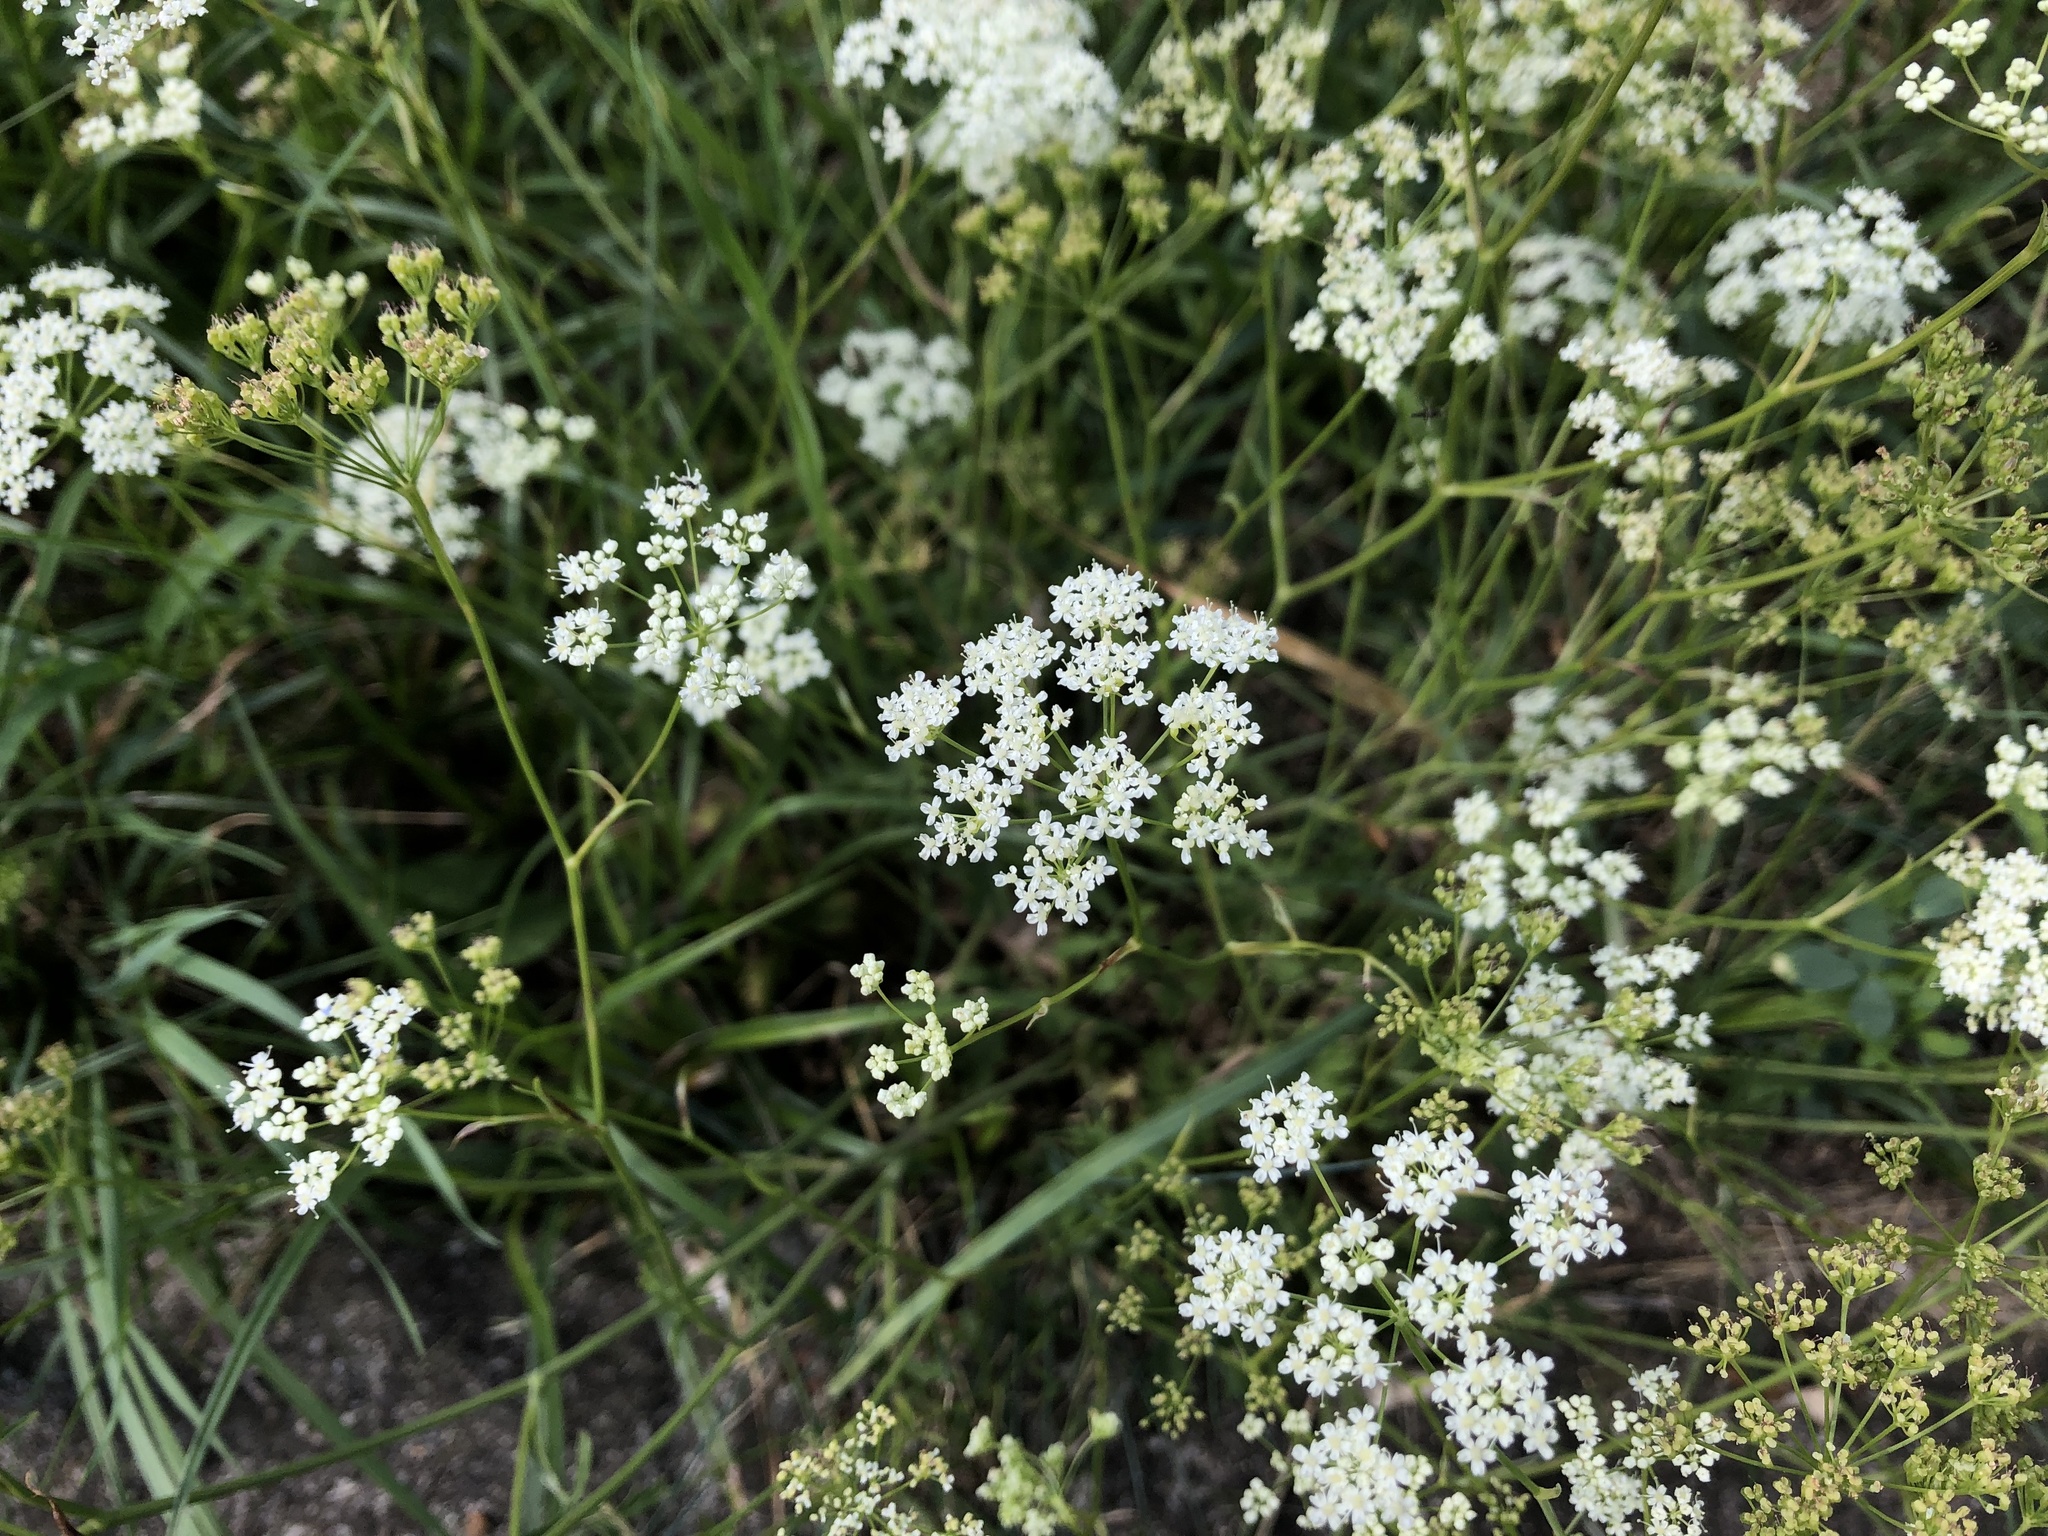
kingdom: Plantae
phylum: Tracheophyta
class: Magnoliopsida
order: Apiales
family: Apiaceae
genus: Pimpinella
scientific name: Pimpinella saxifraga
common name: Burnet-saxifrage
